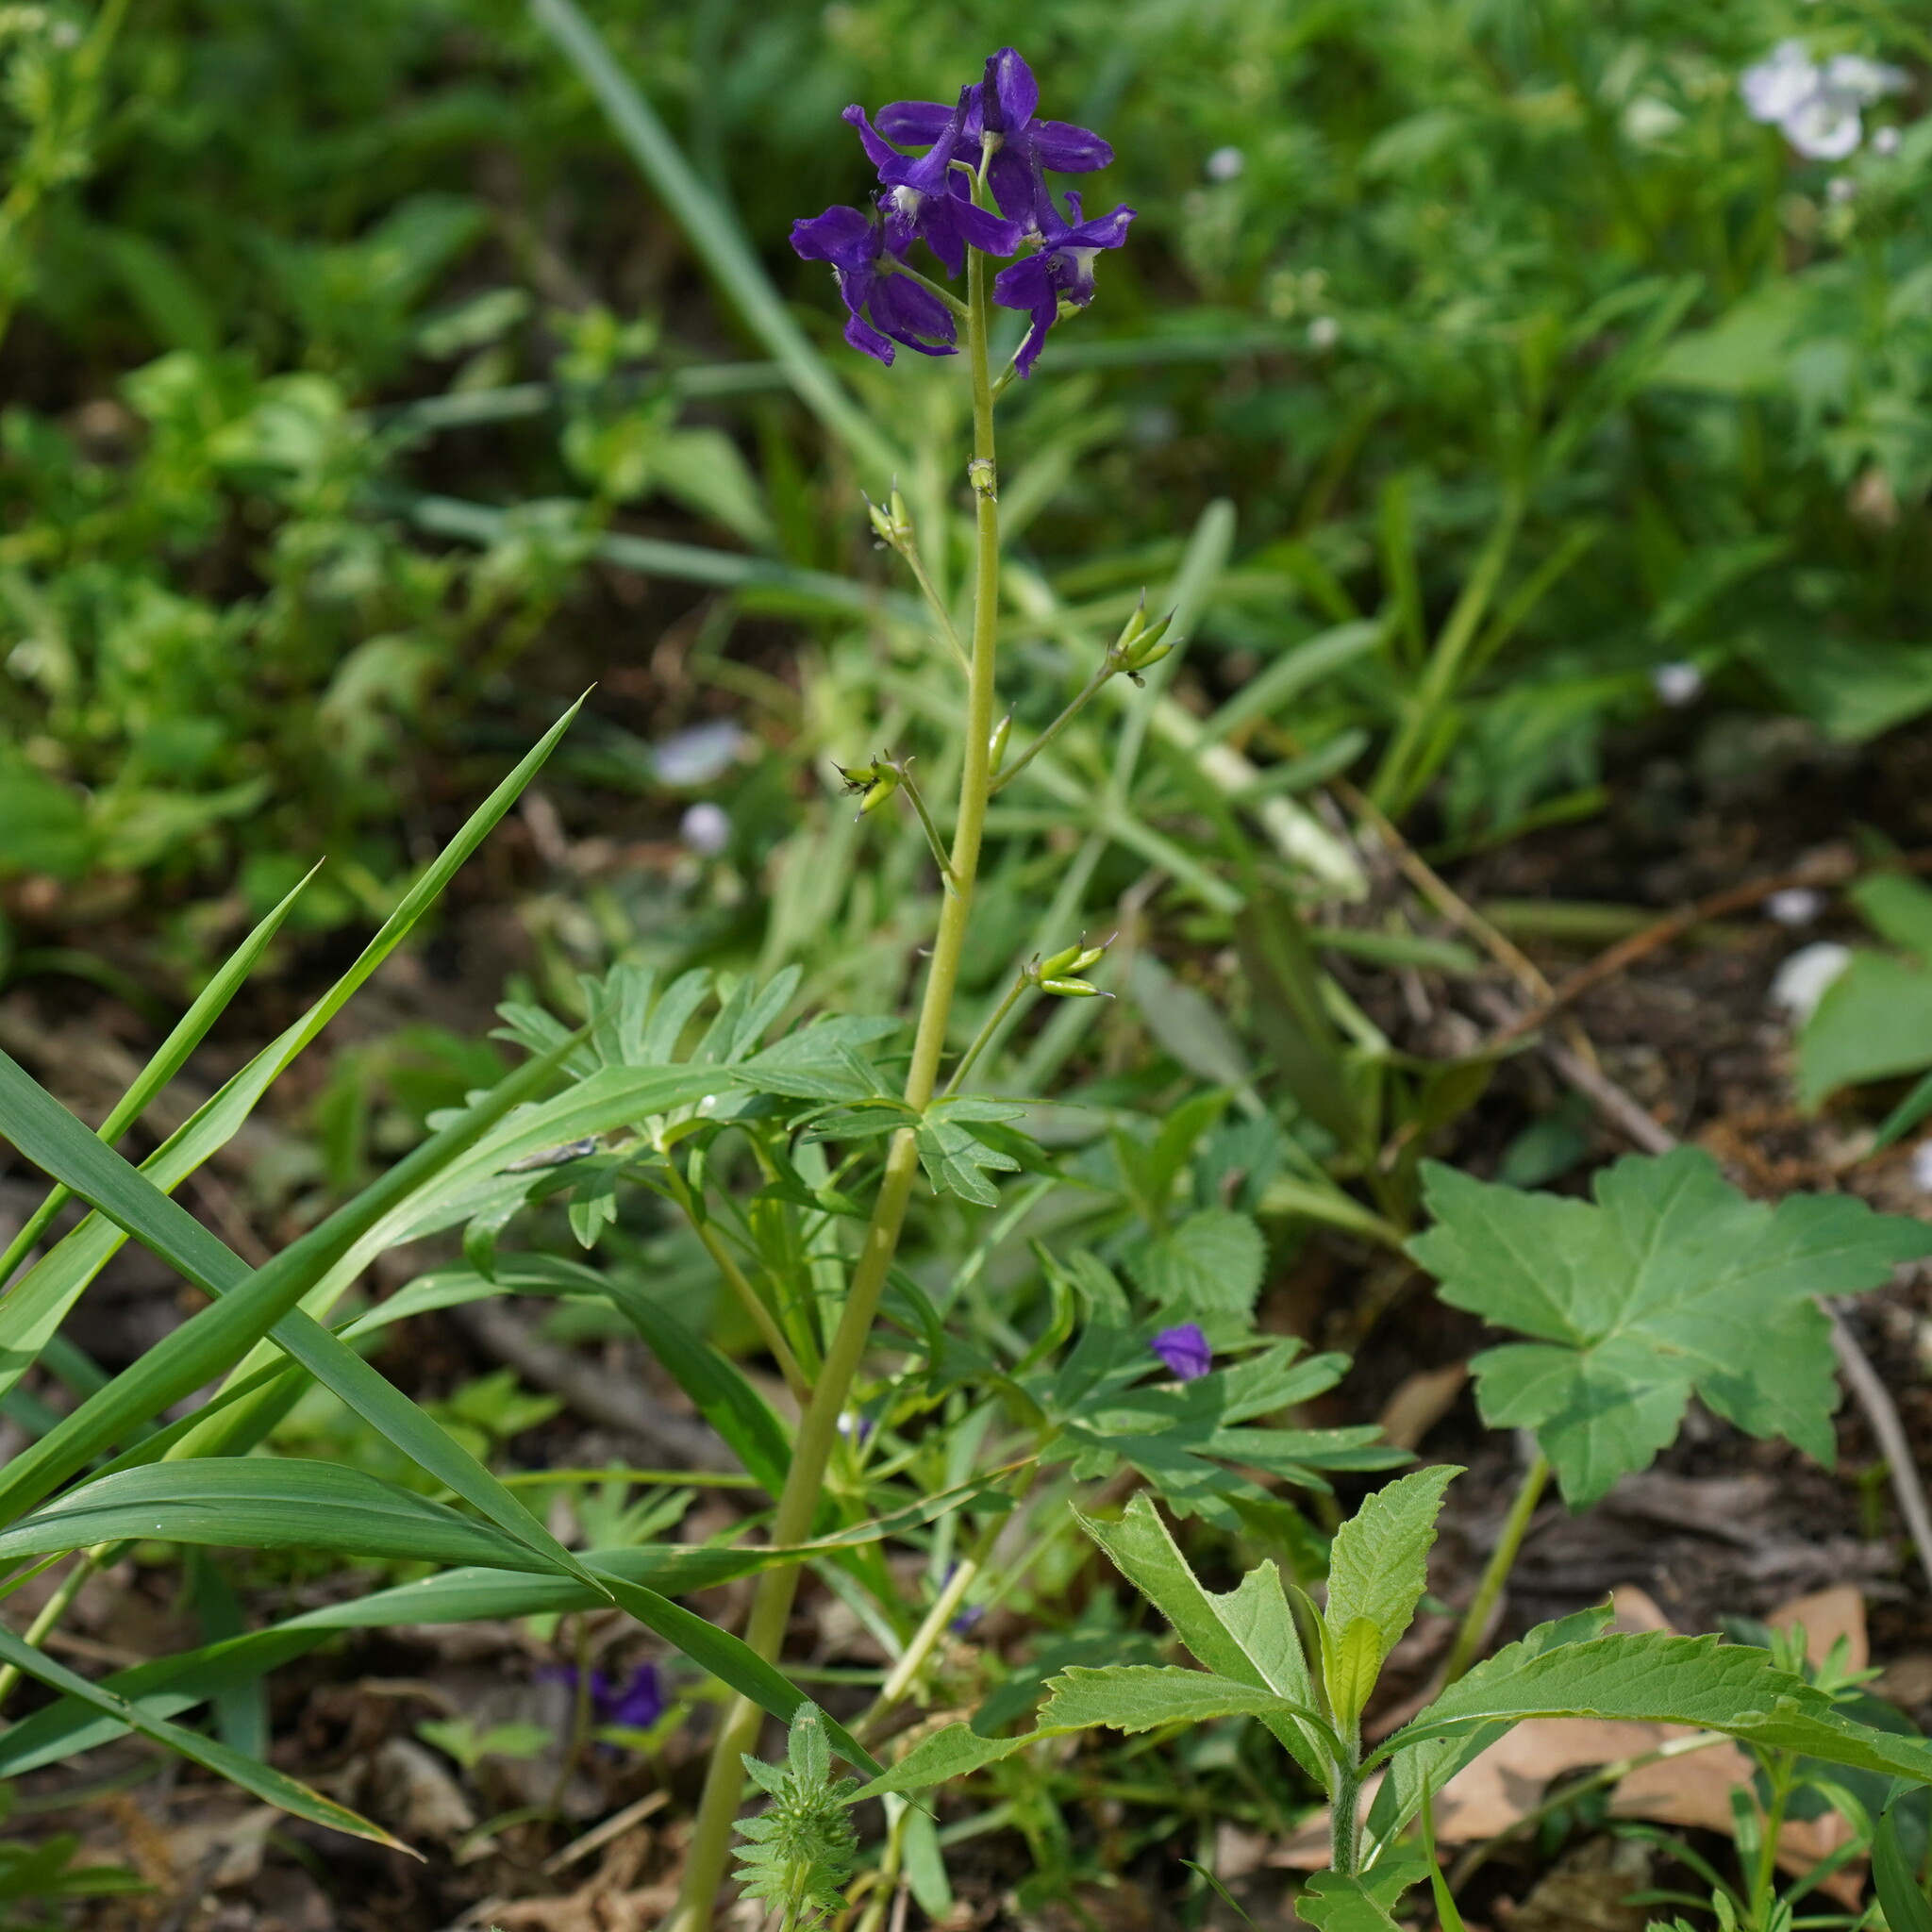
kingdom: Plantae
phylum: Tracheophyta
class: Magnoliopsida
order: Ranunculales
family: Ranunculaceae
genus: Delphinium
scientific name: Delphinium tricorne
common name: Dwarf larkspur
